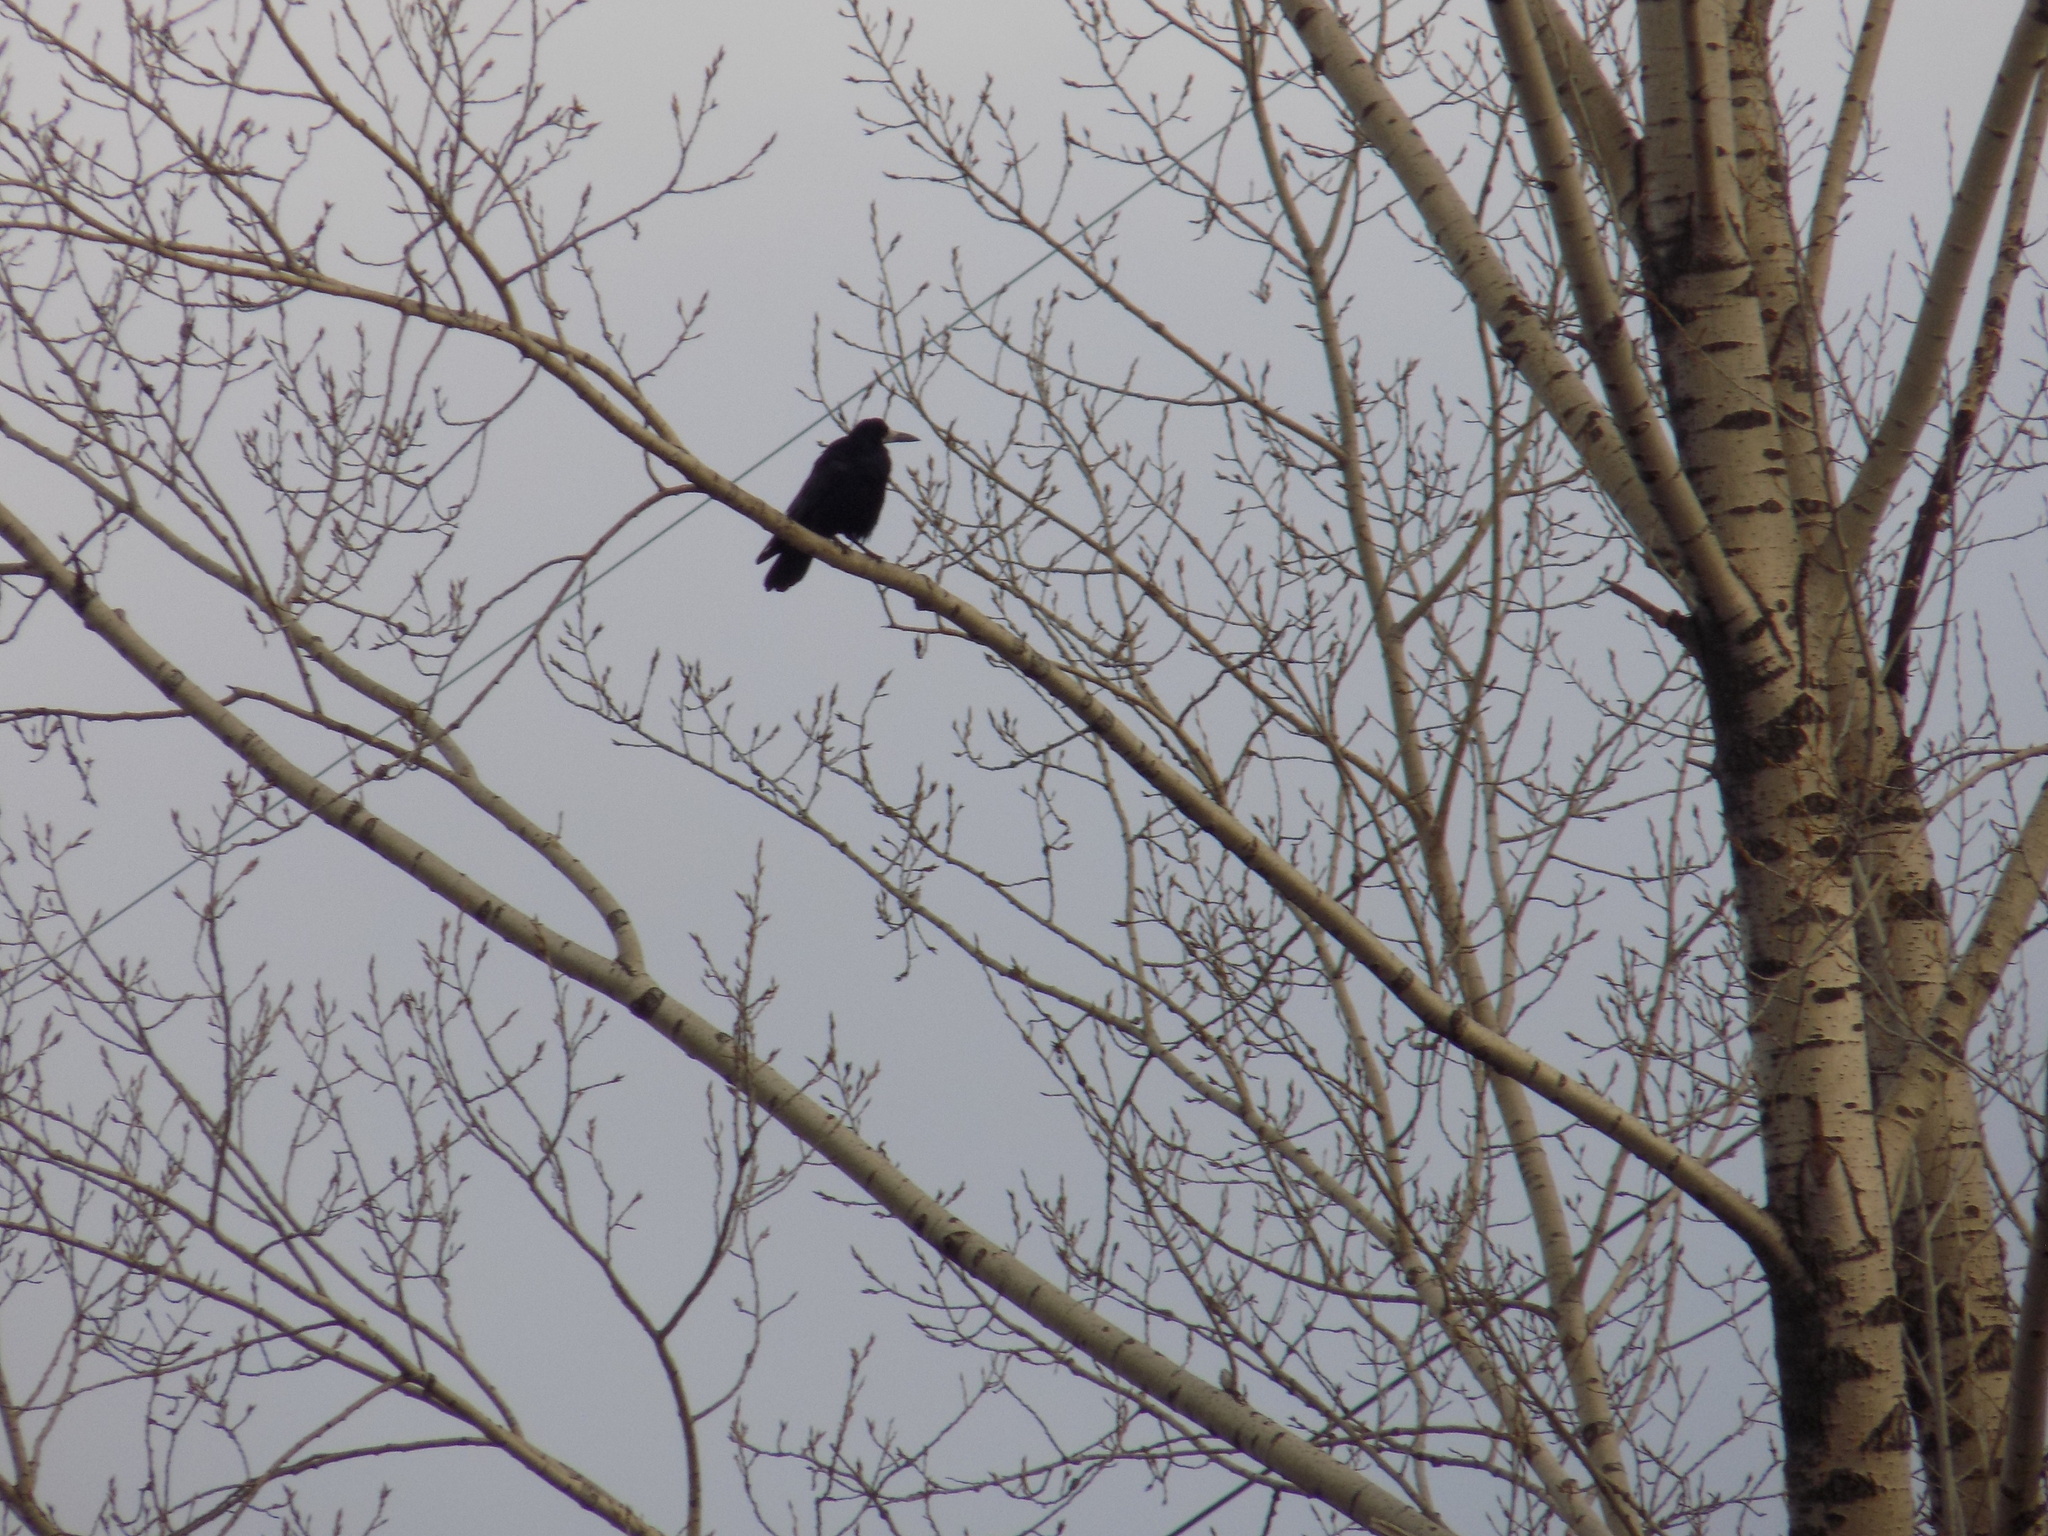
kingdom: Animalia
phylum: Chordata
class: Aves
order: Passeriformes
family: Corvidae
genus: Corvus
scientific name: Corvus frugilegus
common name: Rook
